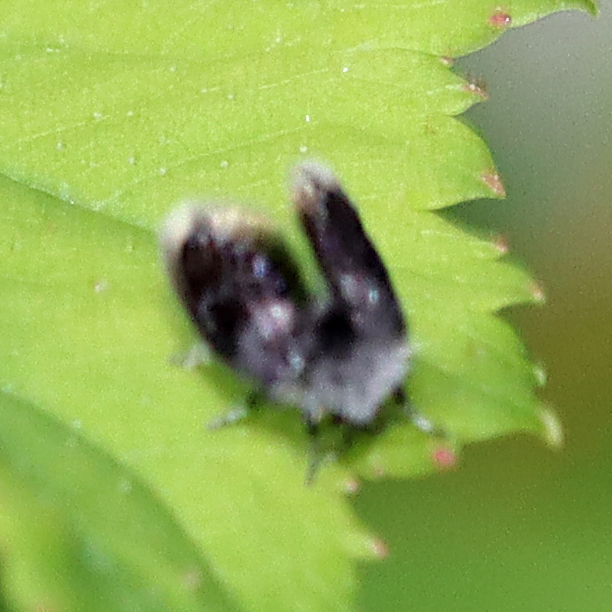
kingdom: Animalia
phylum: Arthropoda
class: Insecta
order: Diptera
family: Psychodidae
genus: Setomima
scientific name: Setomima
